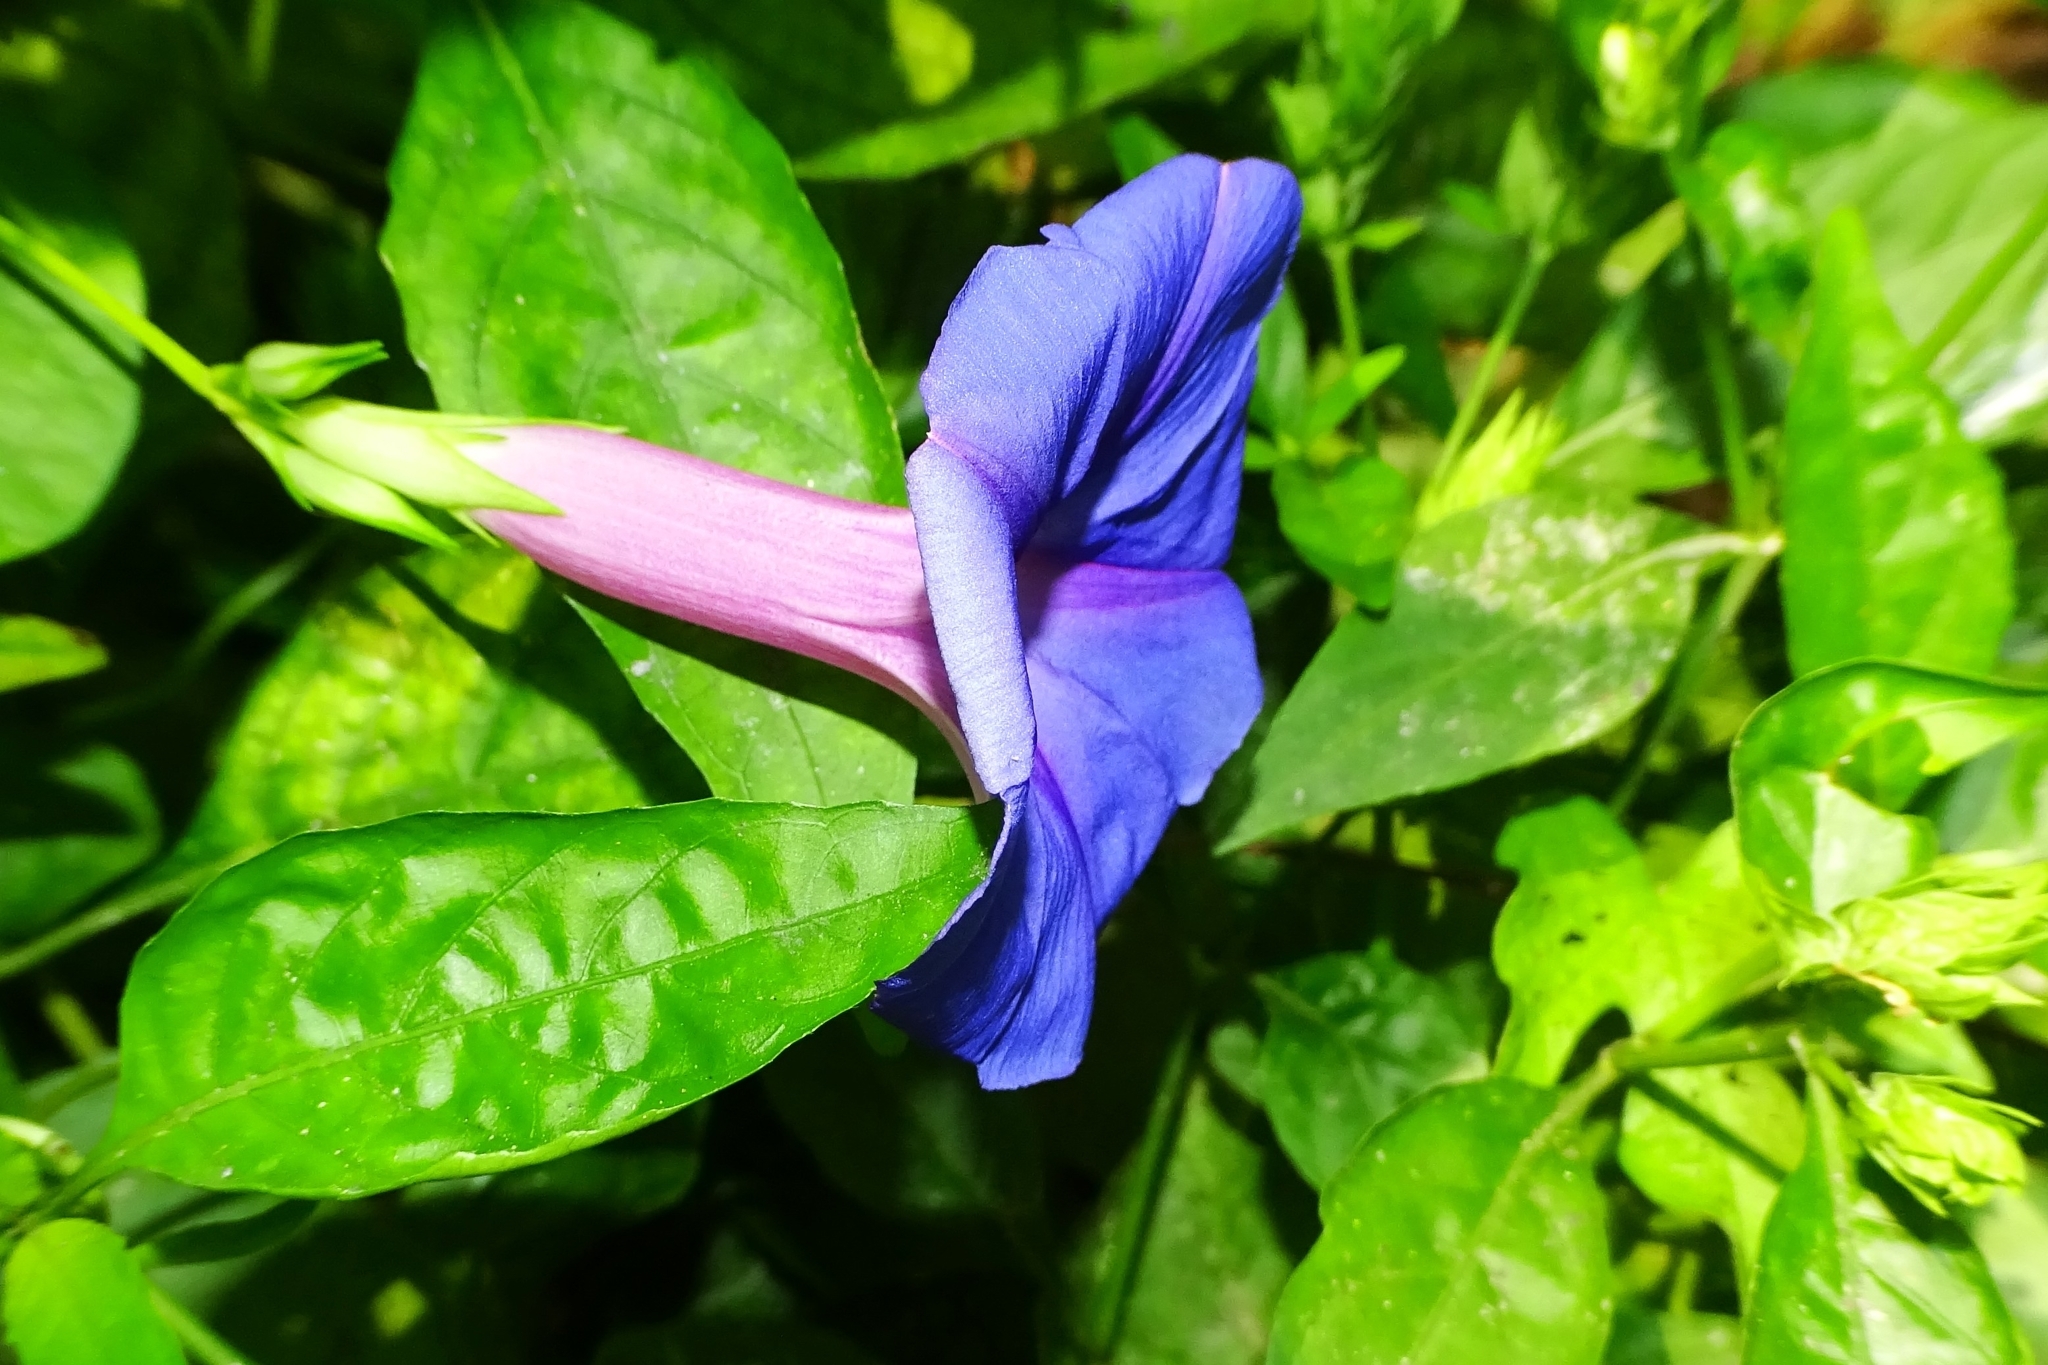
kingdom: Plantae
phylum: Tracheophyta
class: Magnoliopsida
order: Solanales
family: Convolvulaceae
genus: Ipomoea
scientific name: Ipomoea indica
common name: Blue dawnflower
